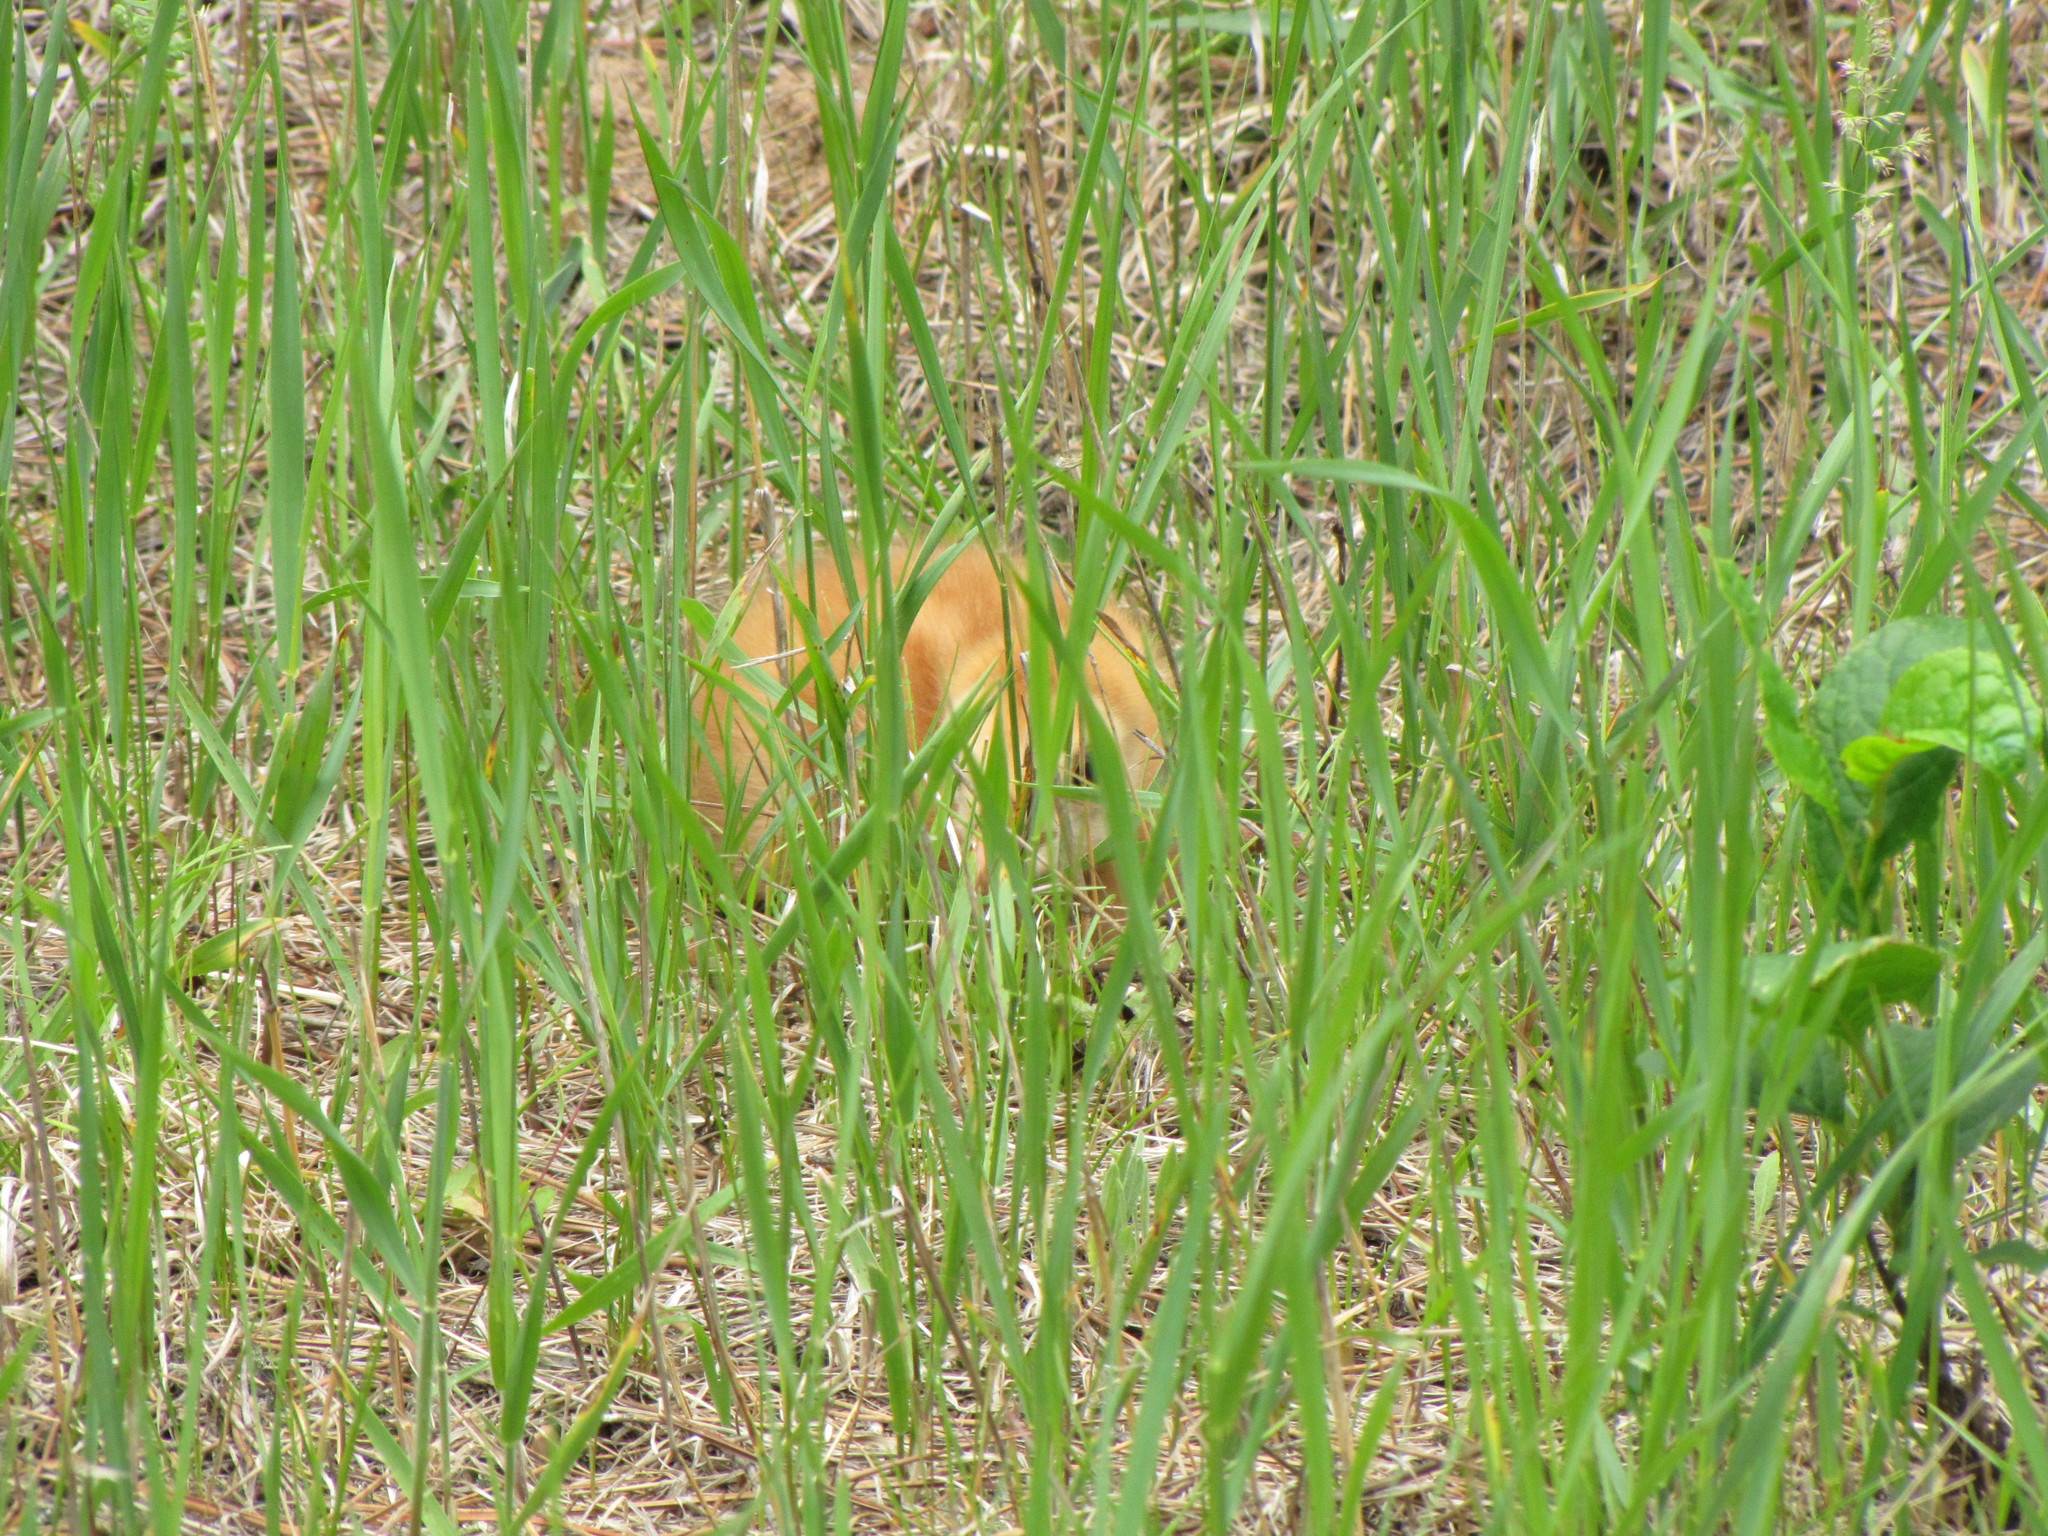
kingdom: Animalia
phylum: Chordata
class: Aves
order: Gruiformes
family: Gruidae
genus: Grus
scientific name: Grus canadensis
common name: Sandhill crane
